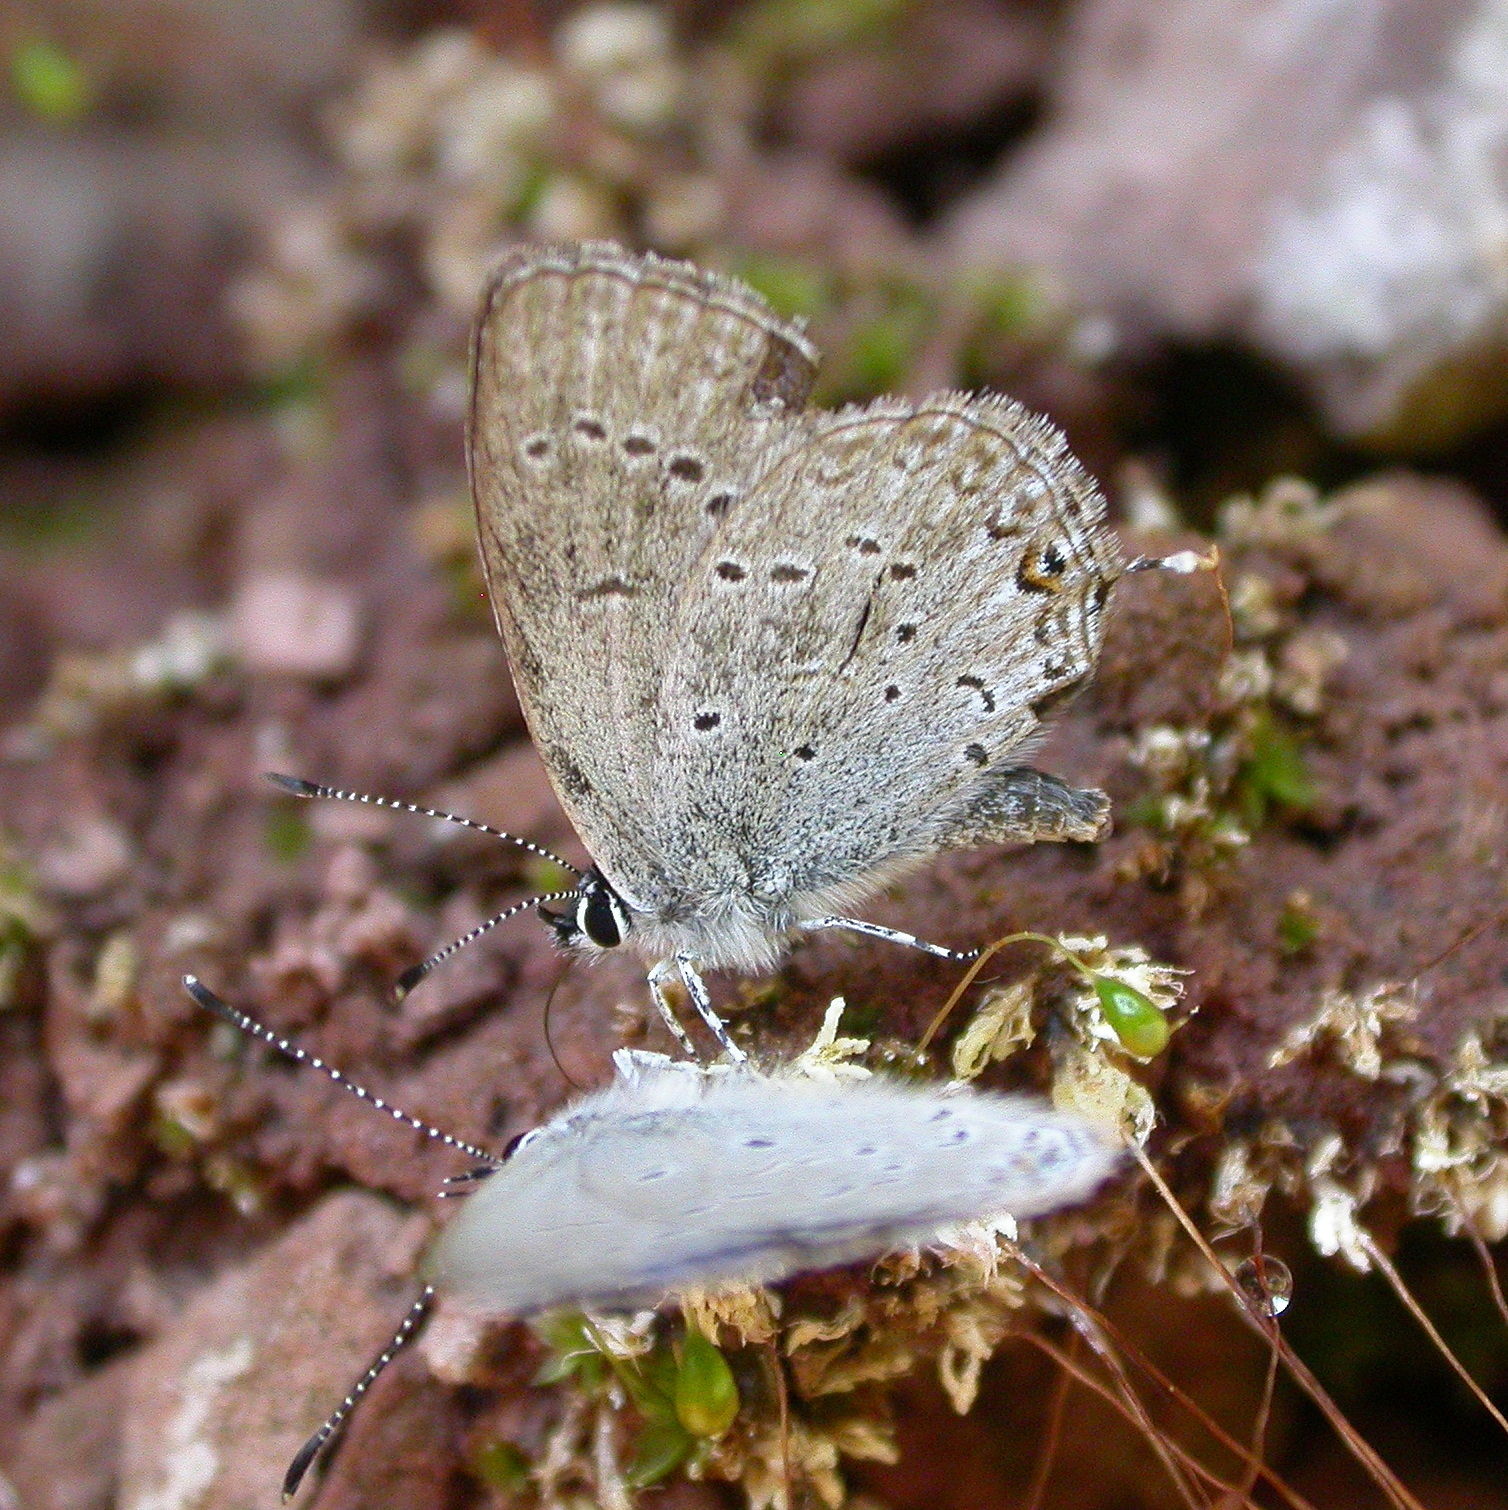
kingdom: Animalia
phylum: Arthropoda
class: Insecta
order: Lepidoptera
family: Lycaenidae
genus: Elkalyce
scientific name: Elkalyce amyntula
